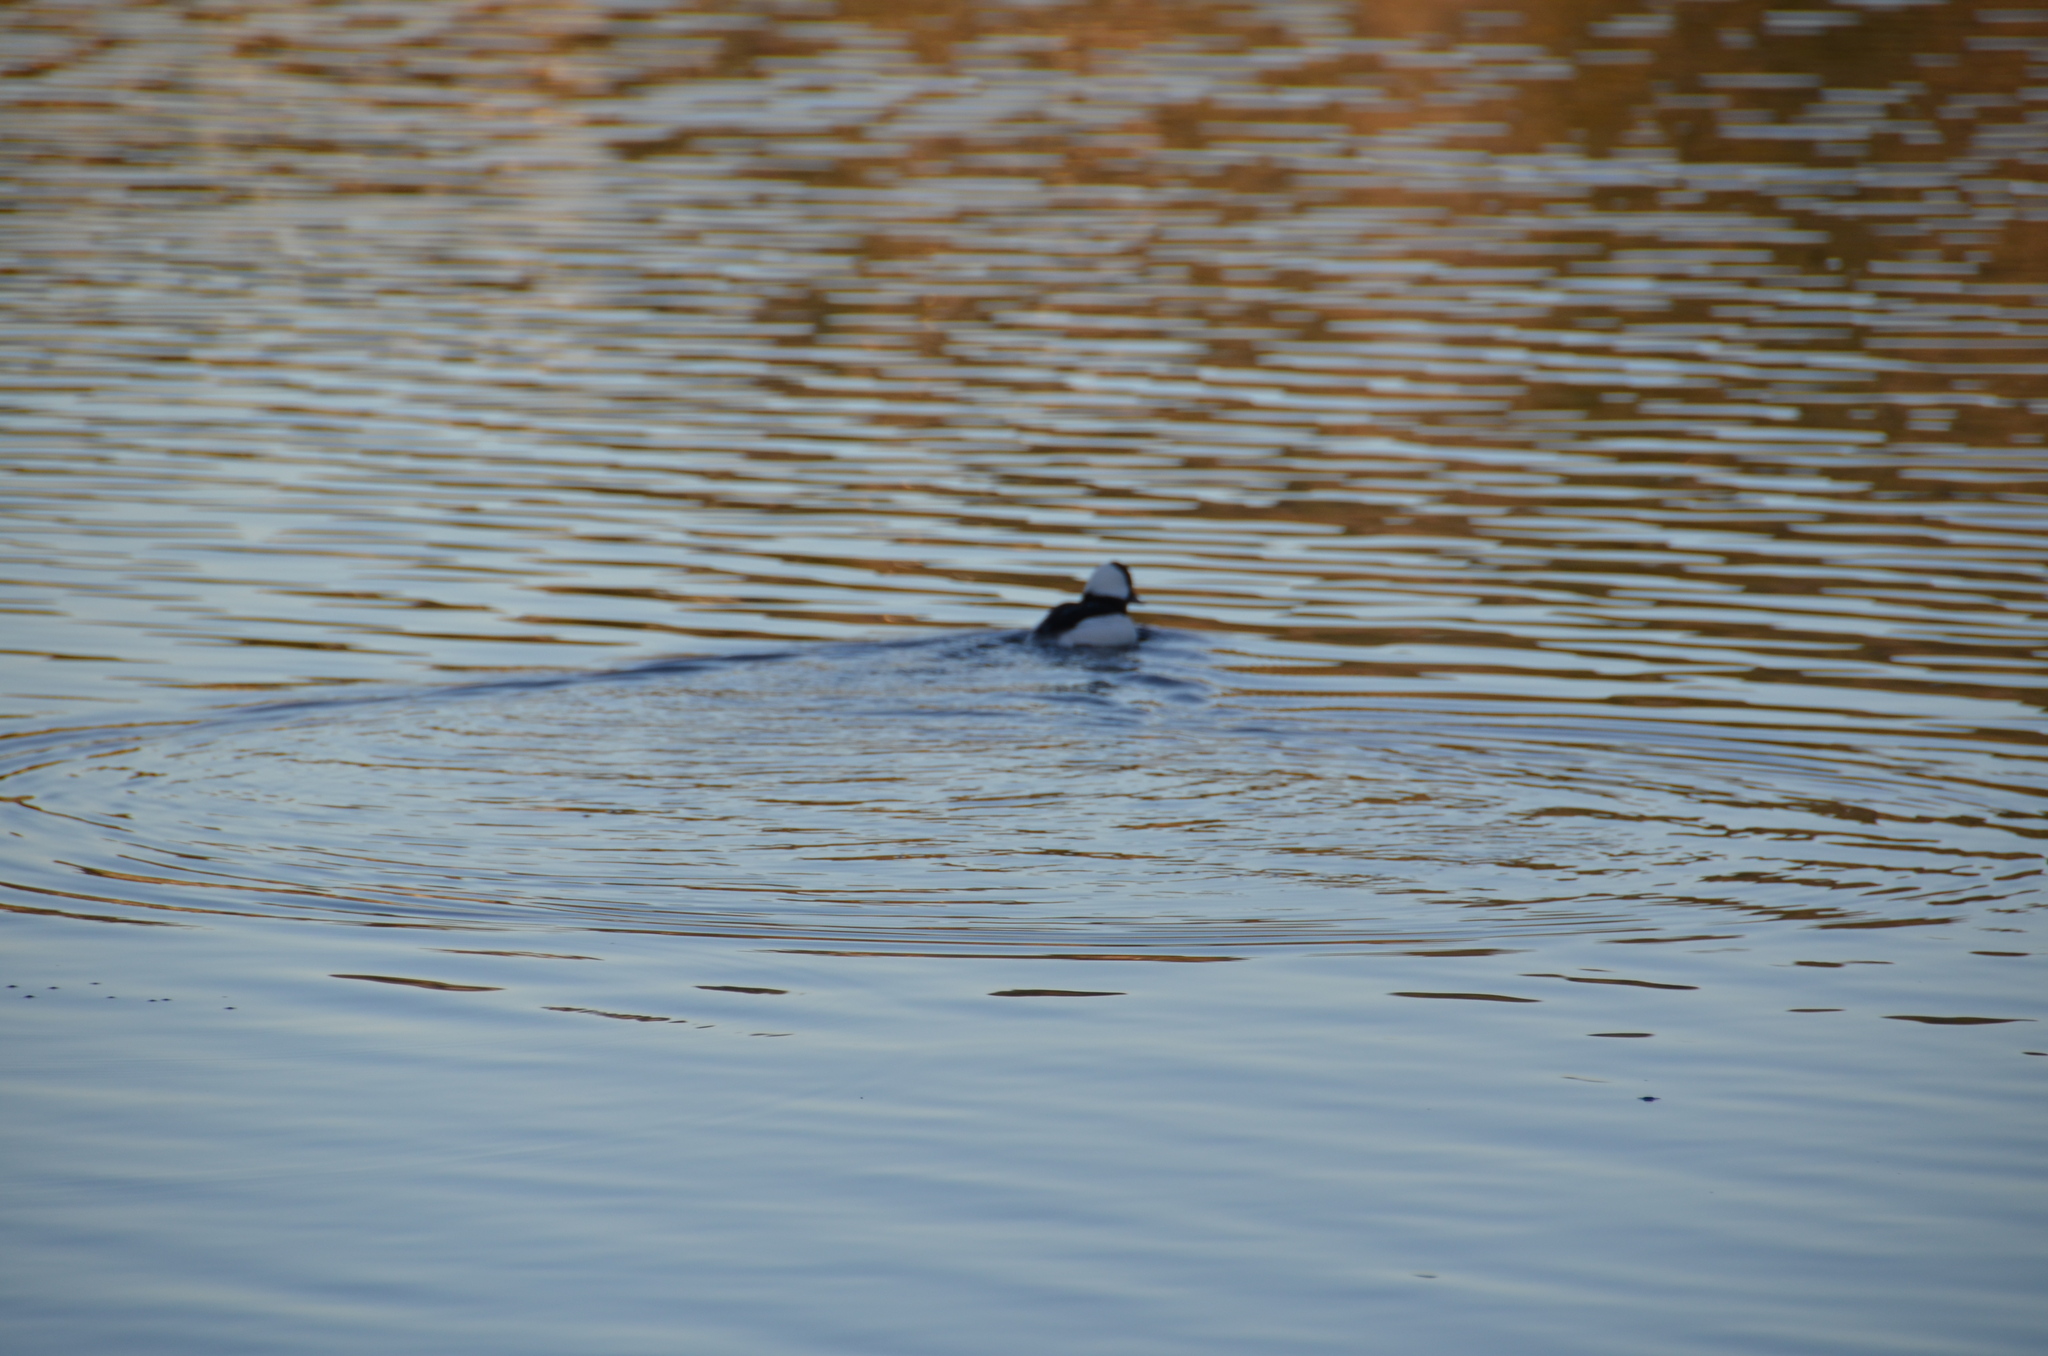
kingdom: Animalia
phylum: Chordata
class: Aves
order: Anseriformes
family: Anatidae
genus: Bucephala
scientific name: Bucephala albeola
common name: Bufflehead
